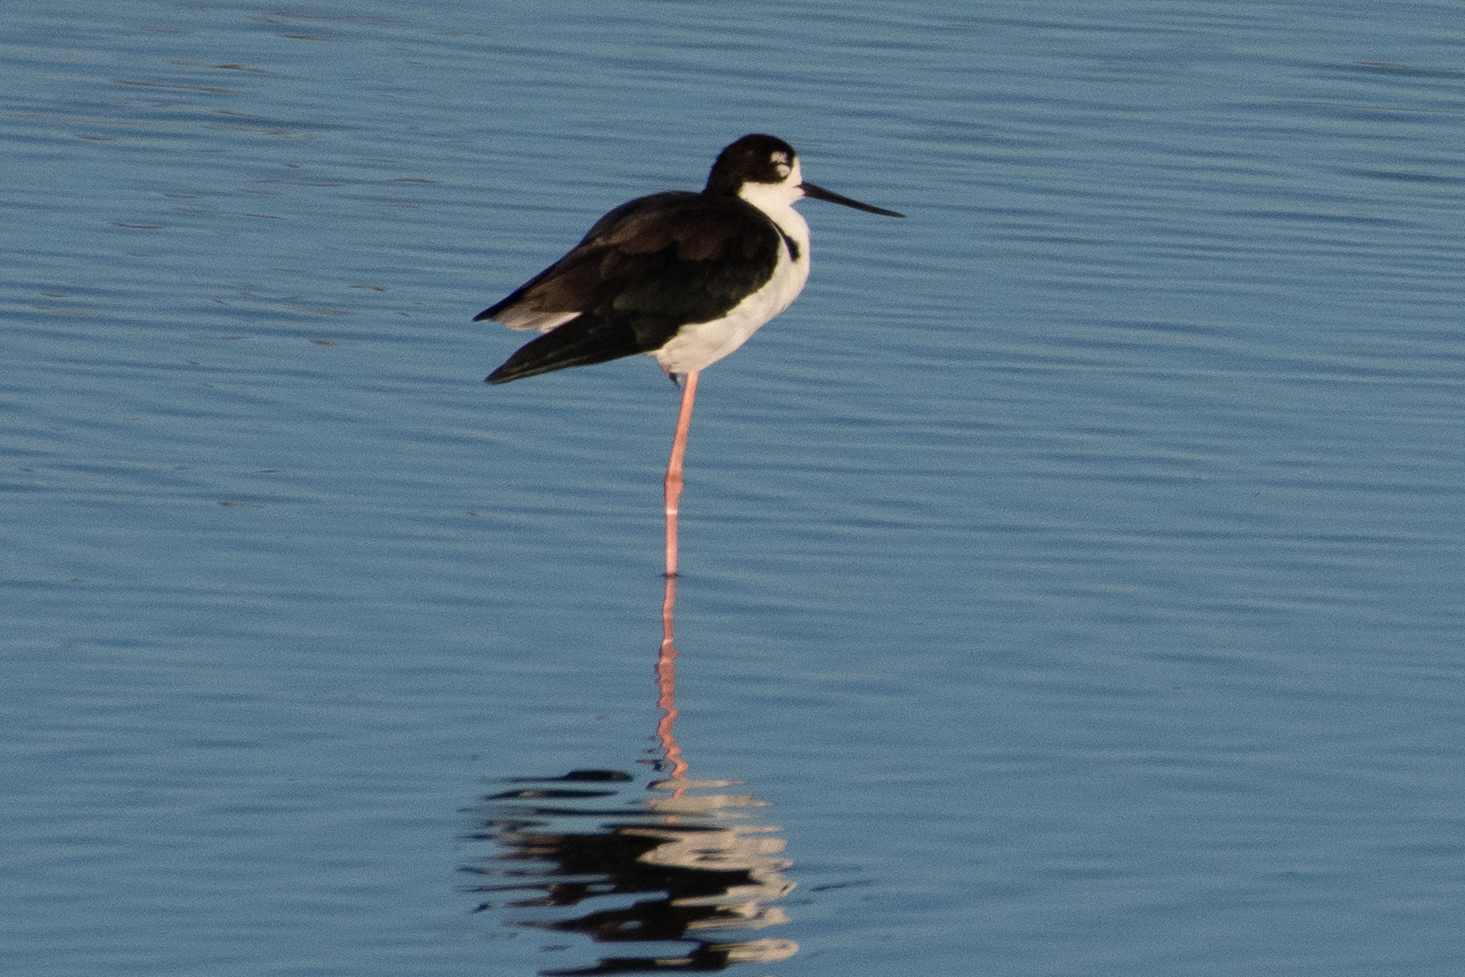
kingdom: Animalia
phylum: Chordata
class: Aves
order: Charadriiformes
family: Recurvirostridae
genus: Himantopus
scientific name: Himantopus mexicanus
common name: Black-necked stilt
